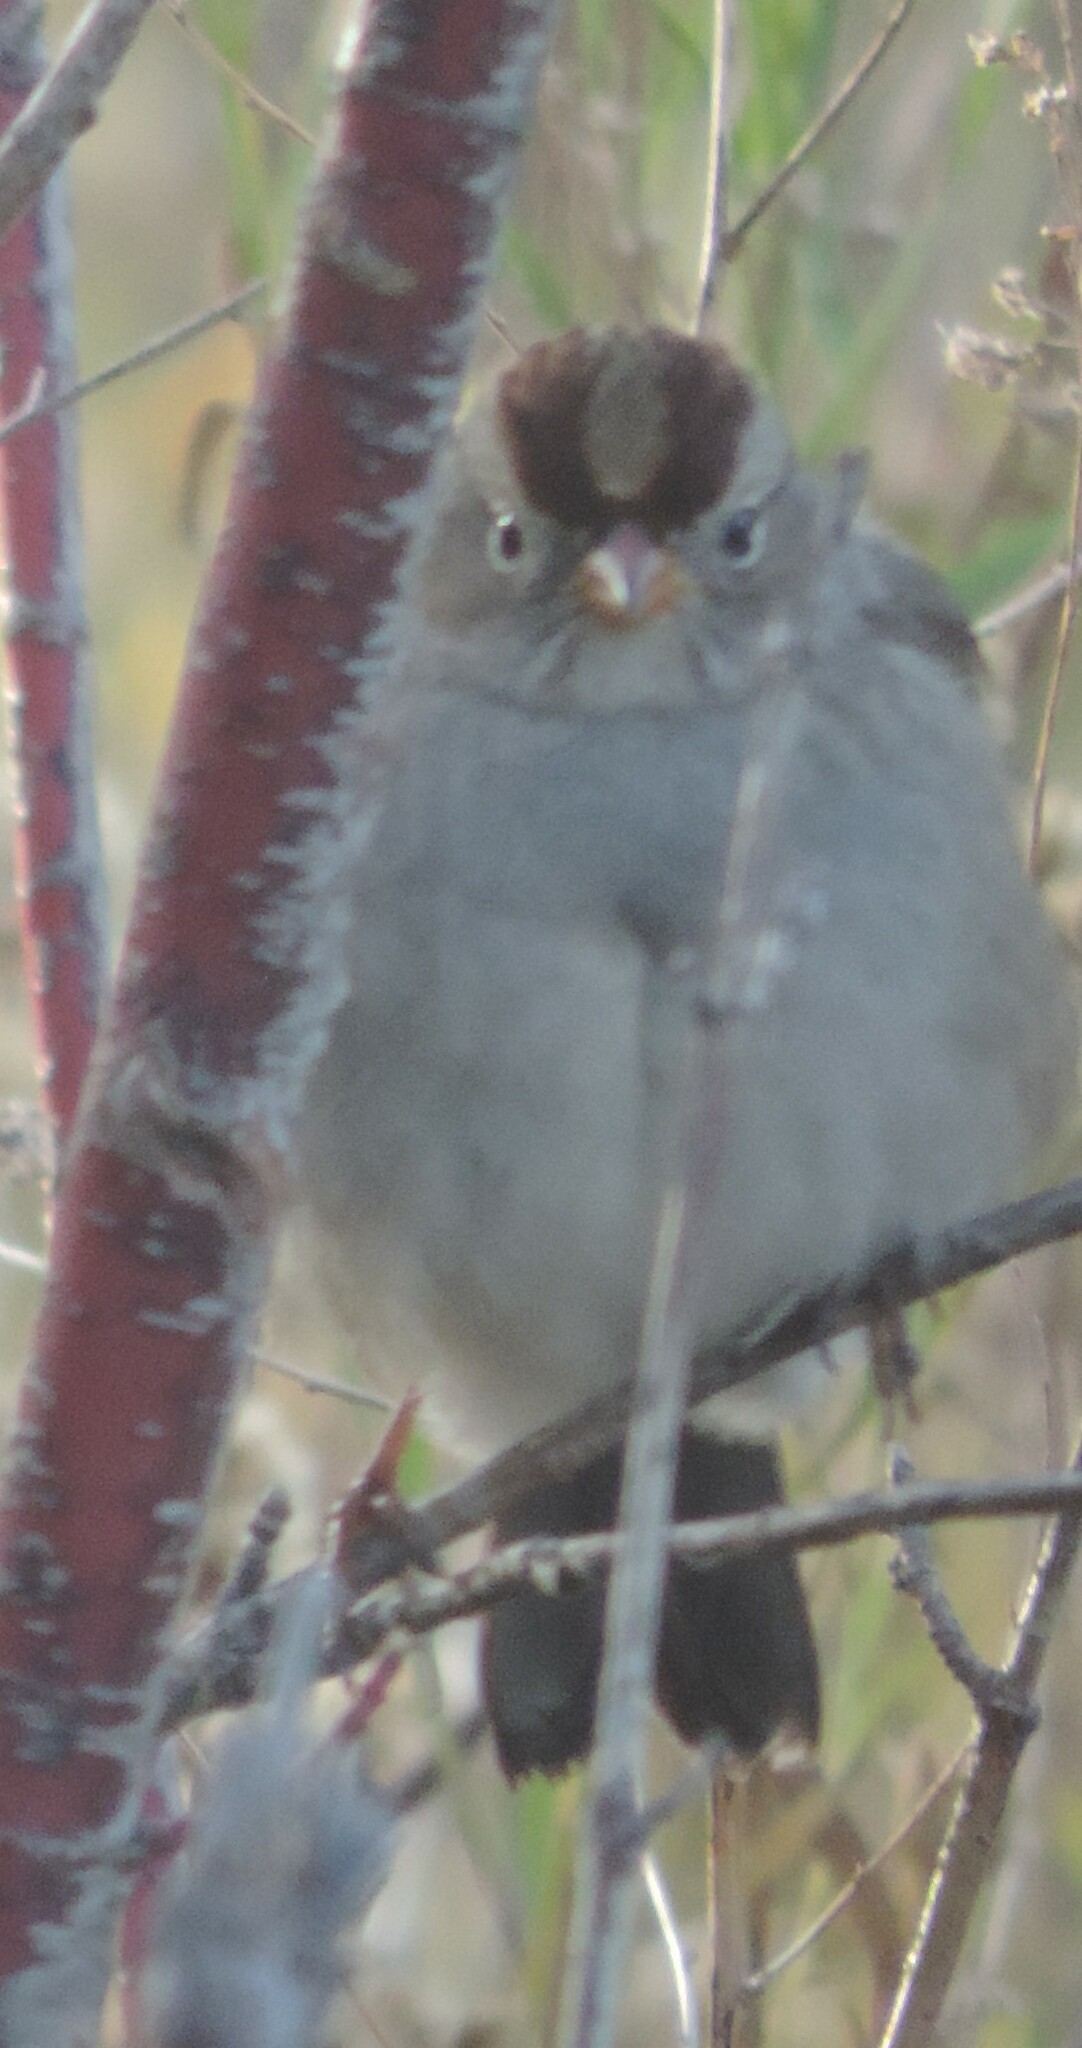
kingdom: Animalia
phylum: Chordata
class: Aves
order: Passeriformes
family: Passerellidae
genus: Zonotrichia
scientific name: Zonotrichia leucophrys
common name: White-crowned sparrow
